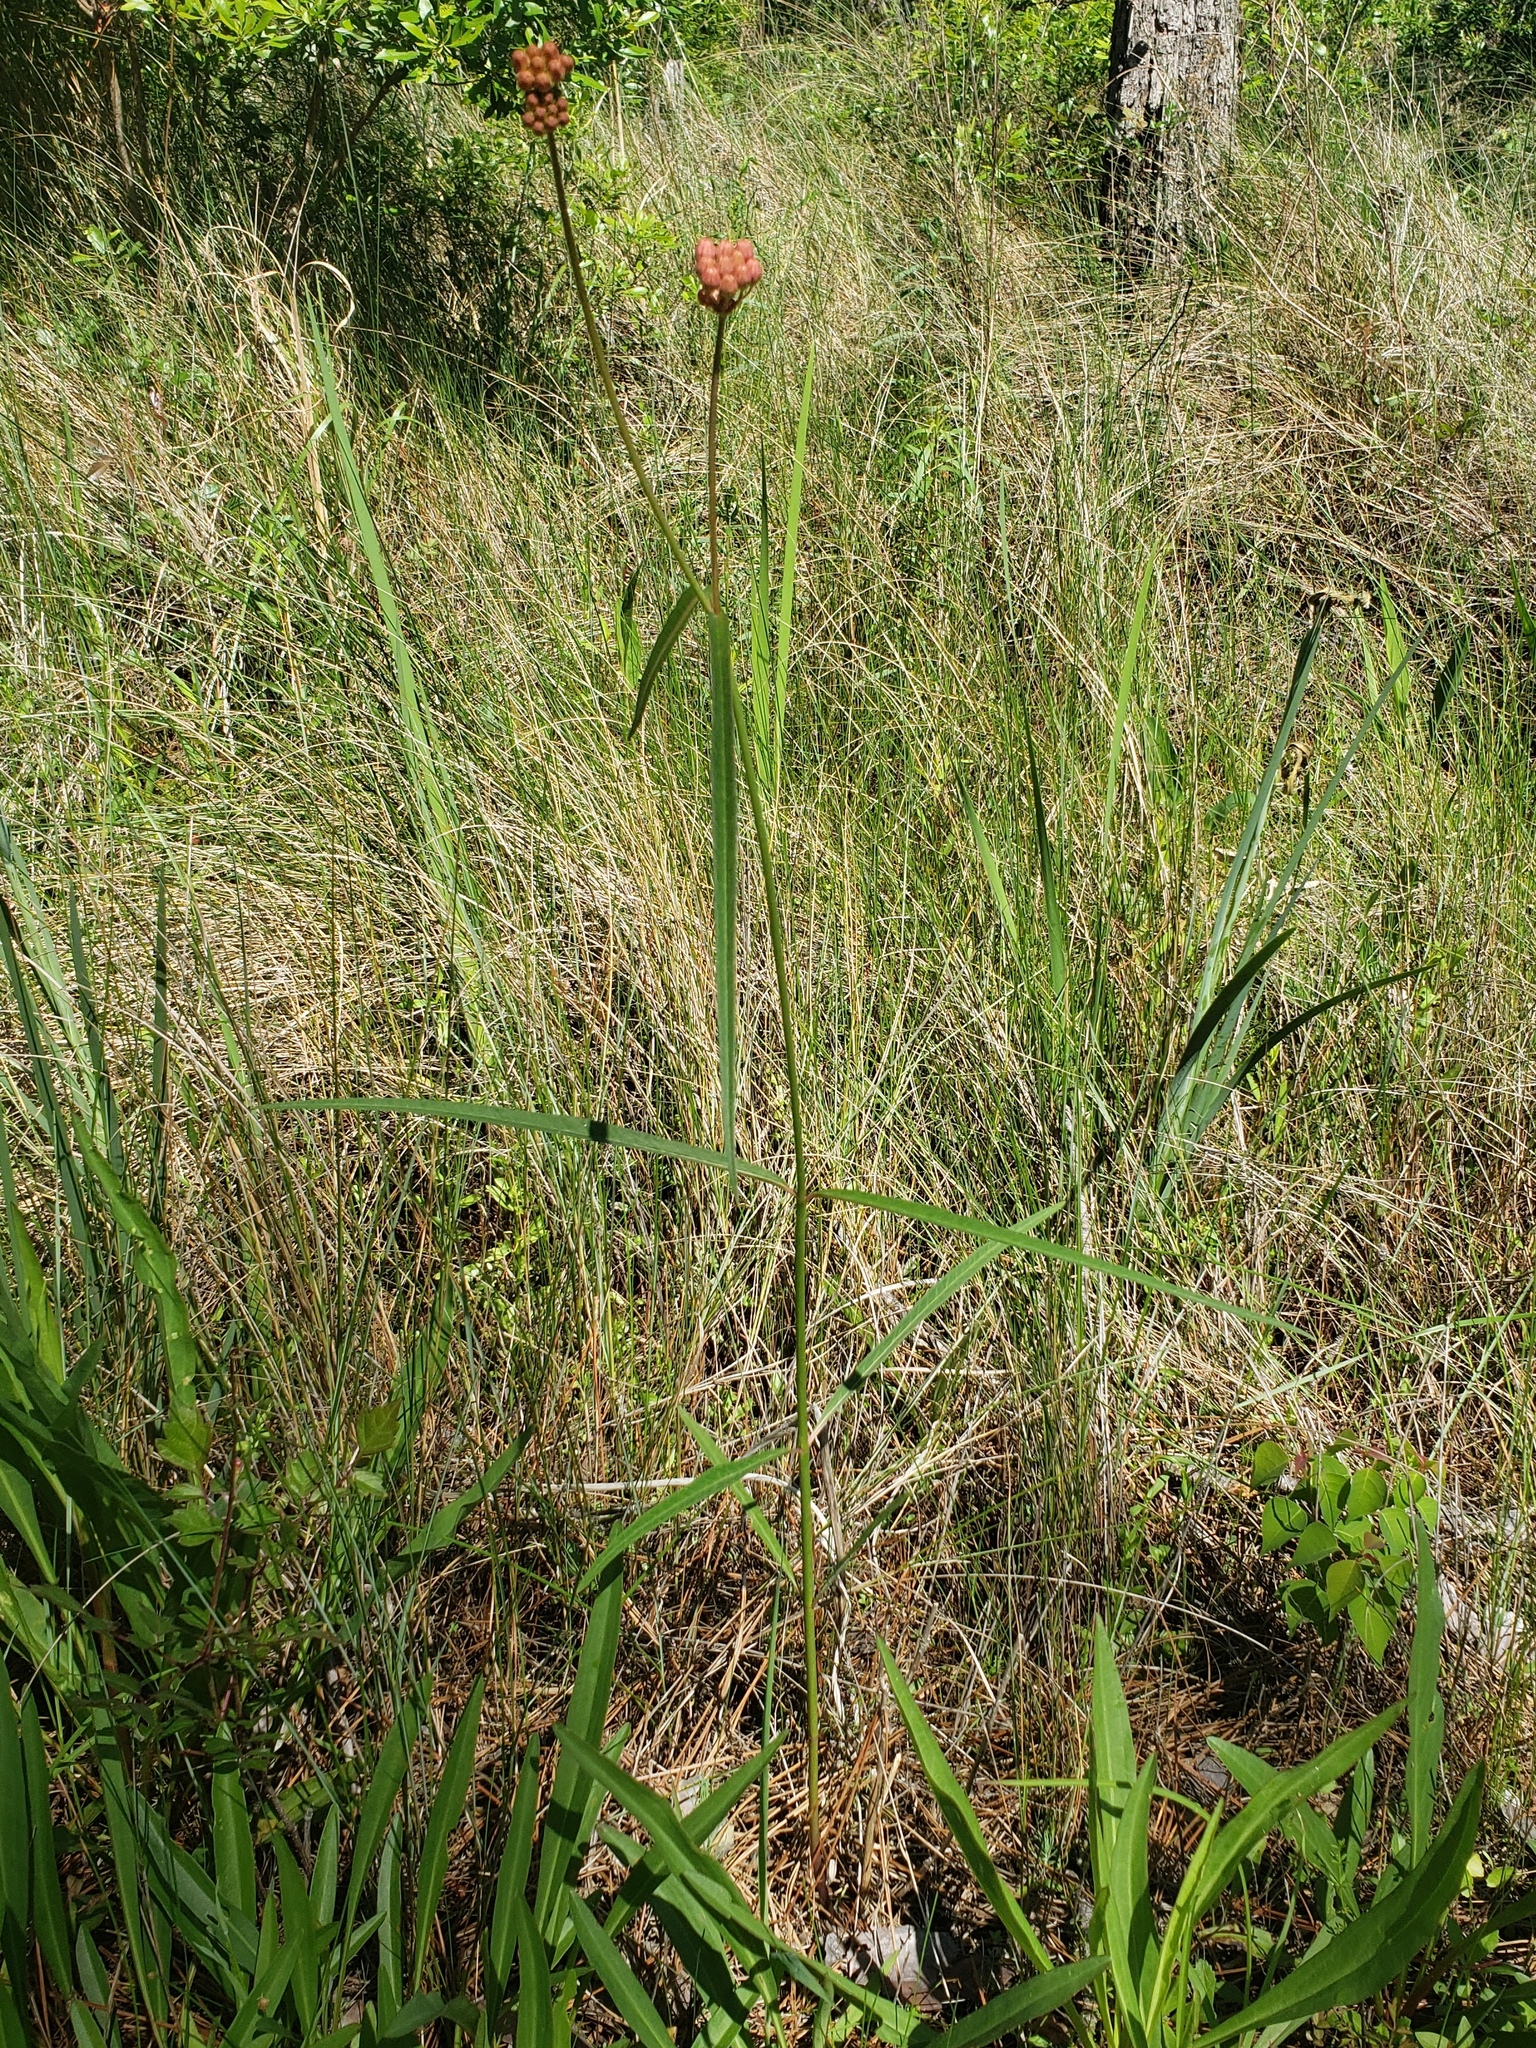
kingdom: Plantae
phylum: Tracheophyta
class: Magnoliopsida
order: Gentianales
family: Apocynaceae
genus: Asclepias
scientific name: Asclepias lanceolata
